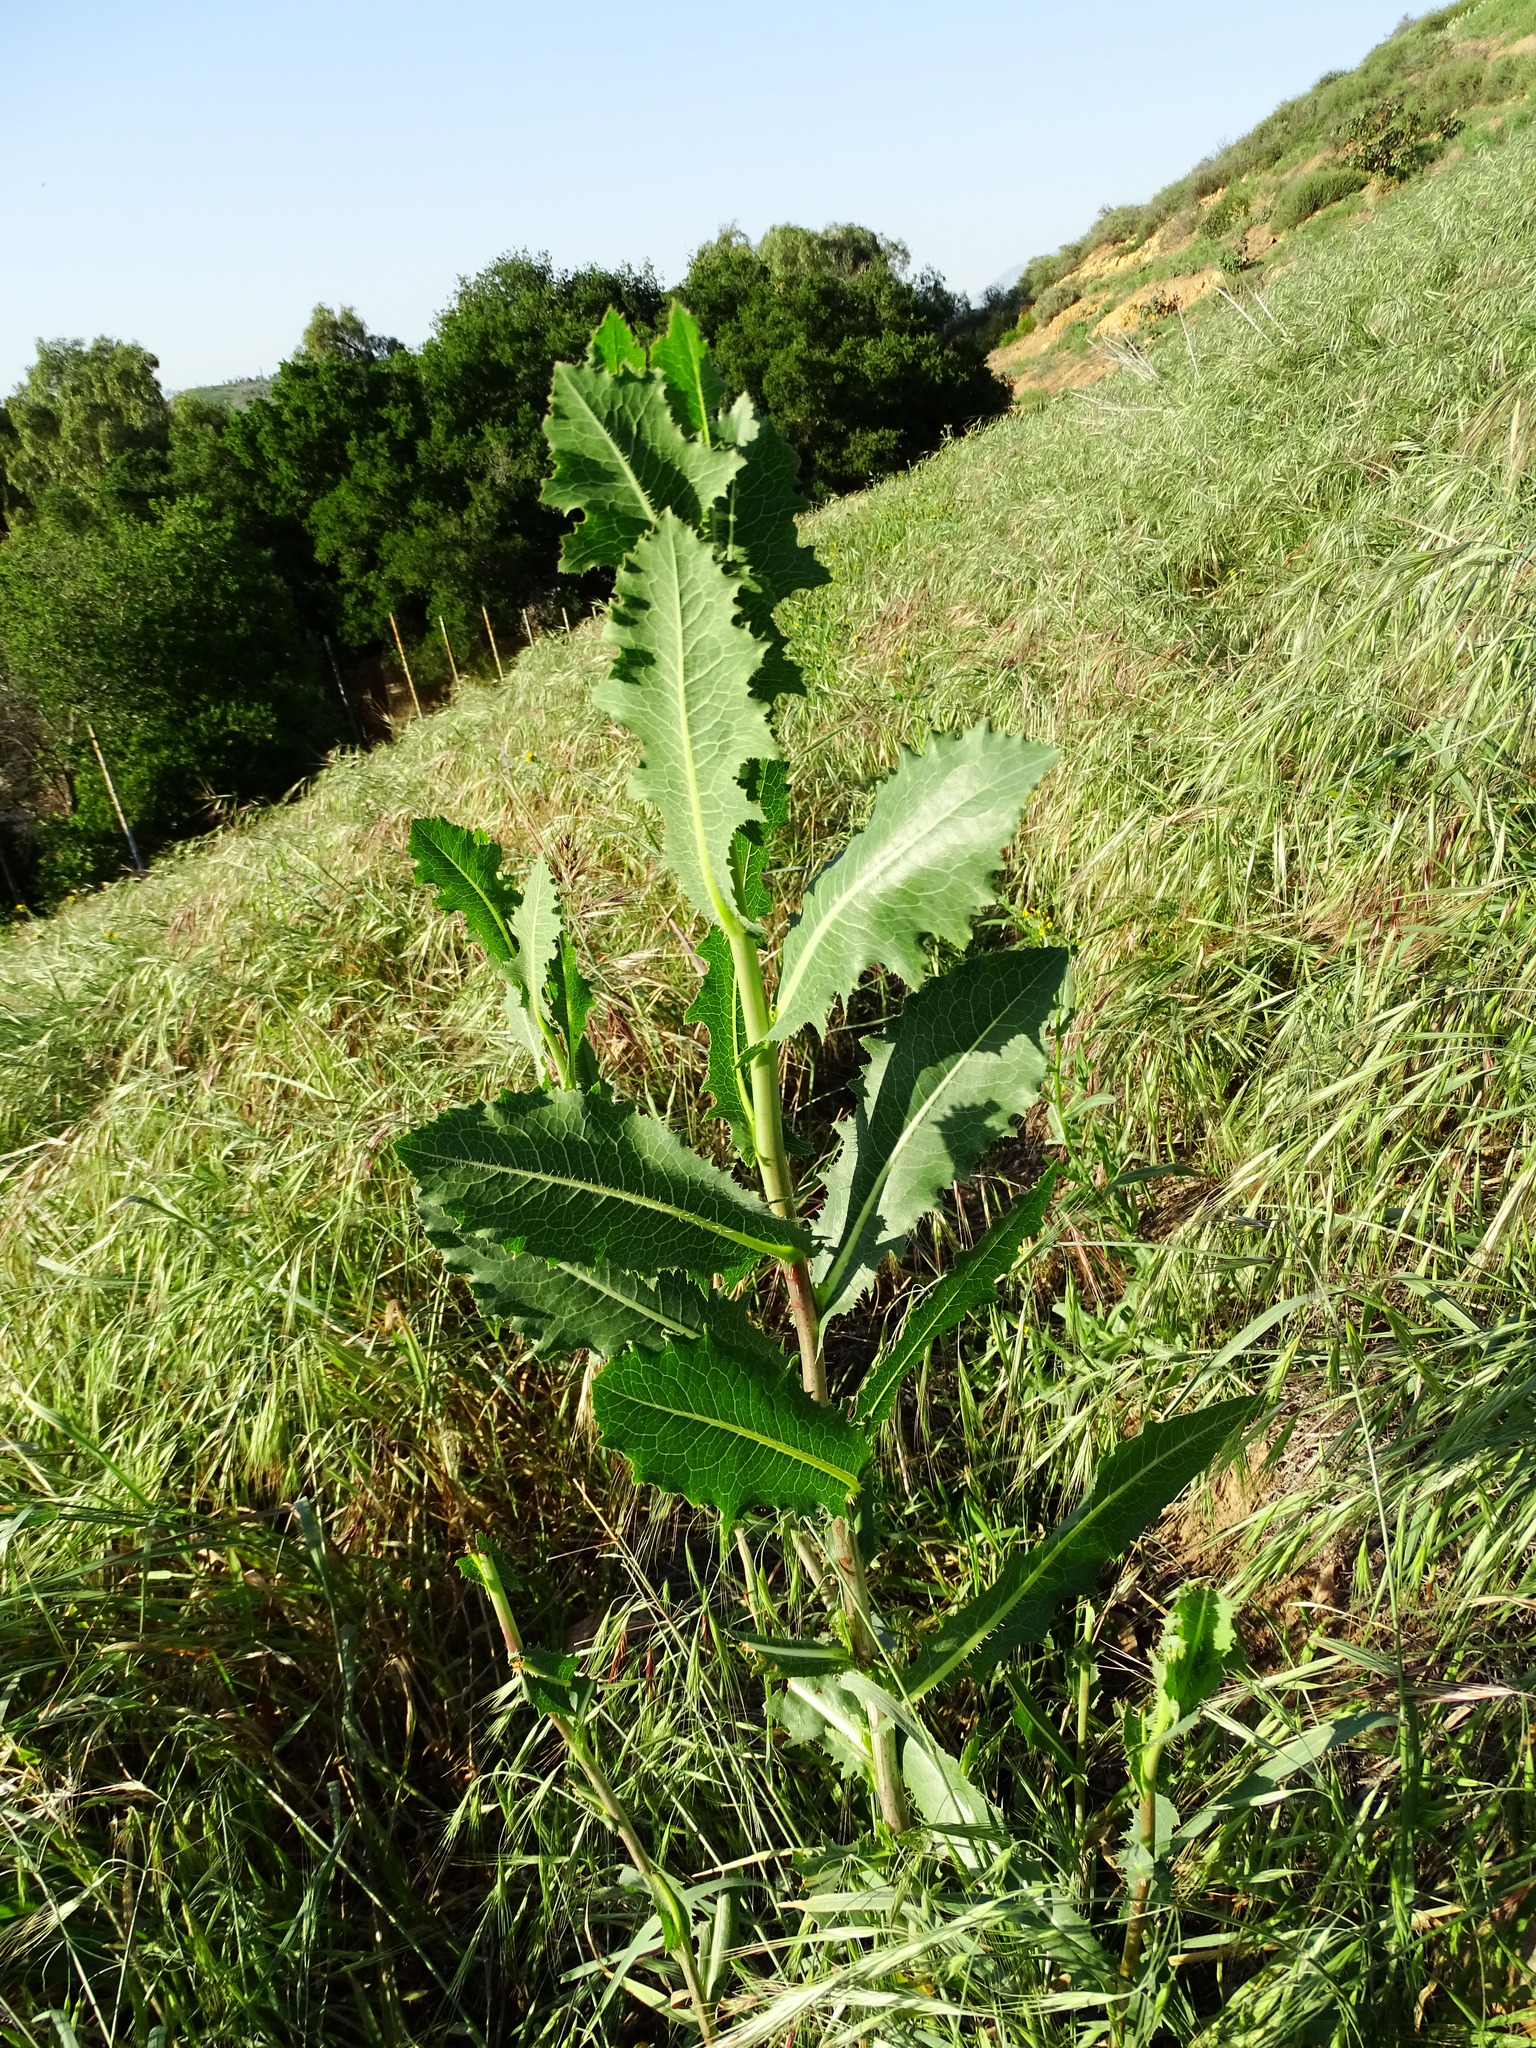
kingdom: Plantae
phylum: Tracheophyta
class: Magnoliopsida
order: Asterales
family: Asteraceae
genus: Lactuca
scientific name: Lactuca serriola
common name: Prickly lettuce
